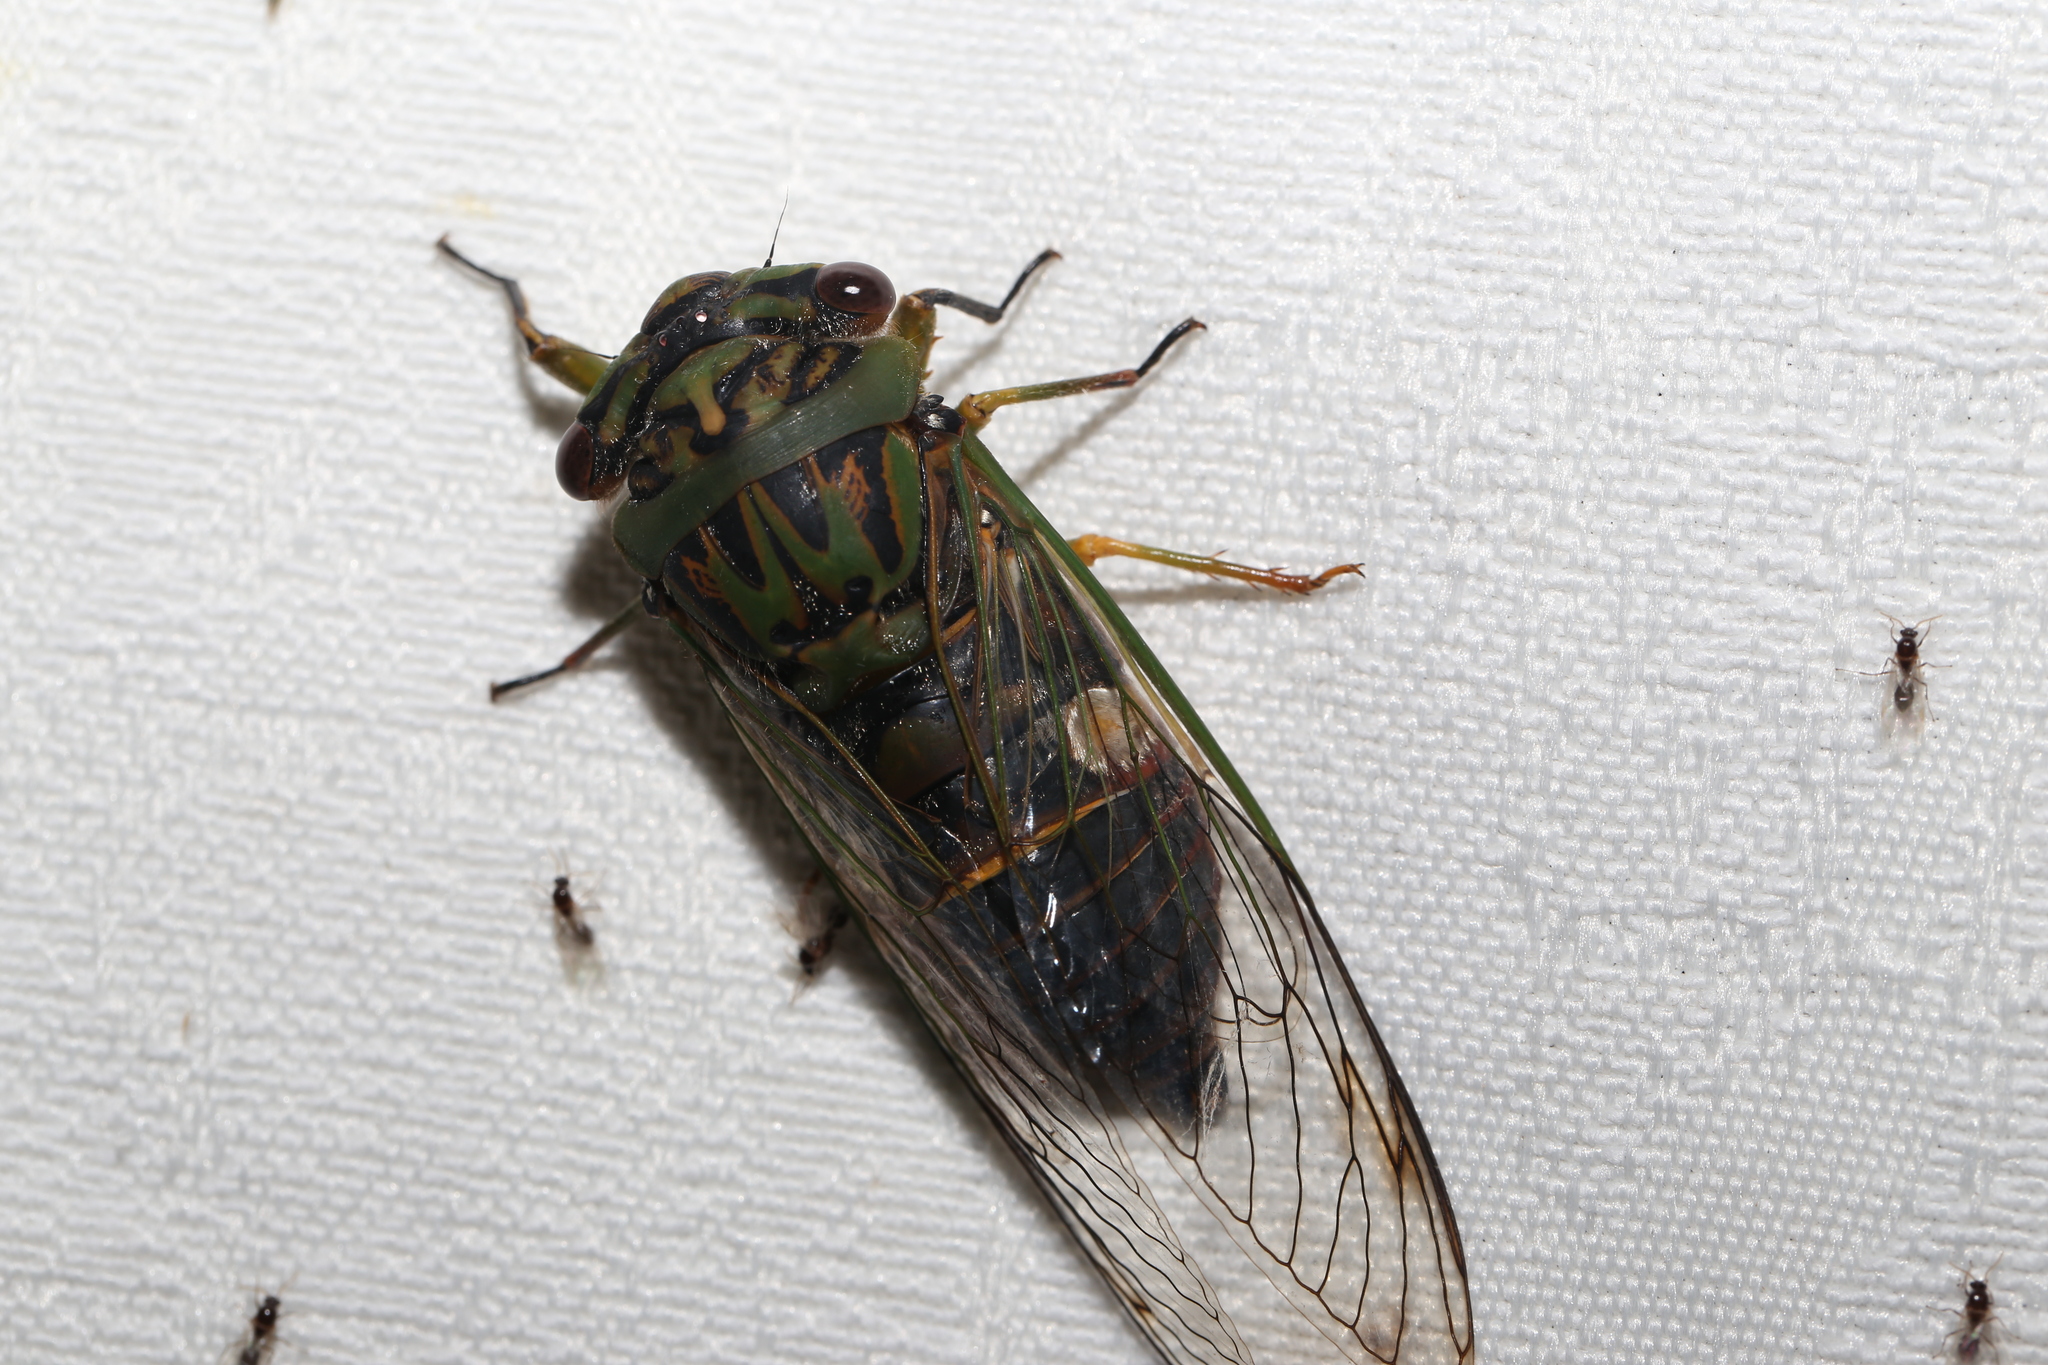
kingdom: Animalia
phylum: Arthropoda
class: Insecta
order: Hemiptera
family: Cicadidae
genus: Psaltoda
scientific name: Psaltoda plaga
